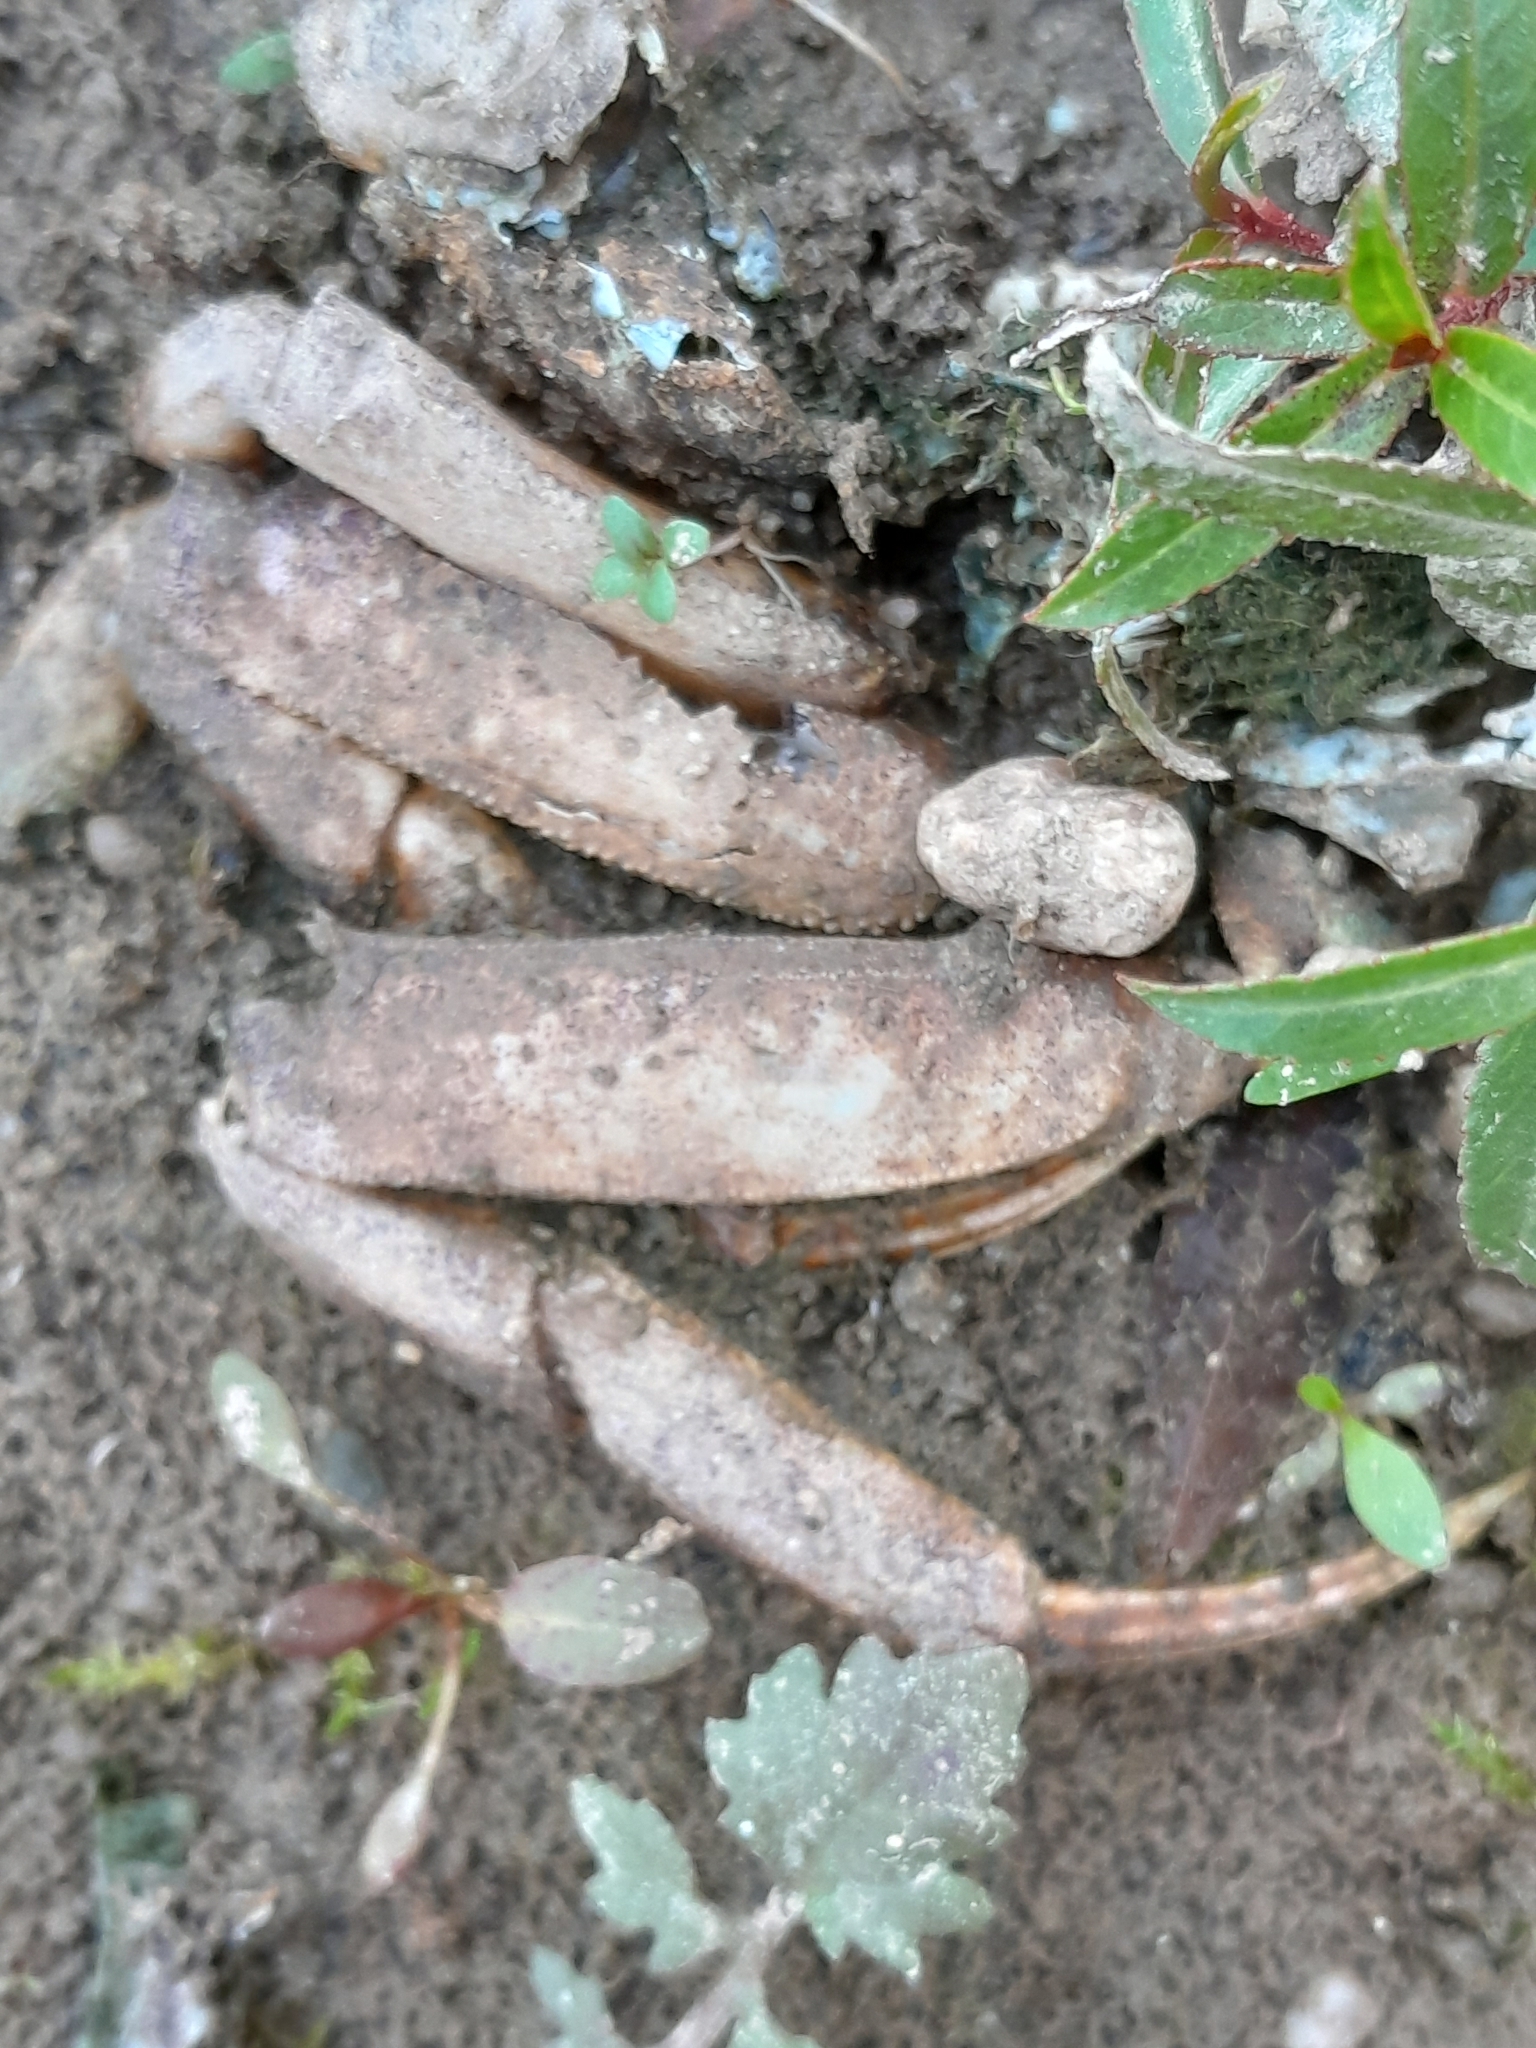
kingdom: Animalia
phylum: Arthropoda
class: Malacostraca
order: Decapoda
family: Varunidae
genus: Eriocheir
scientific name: Eriocheir sinensis
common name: Chinese mitten crab
